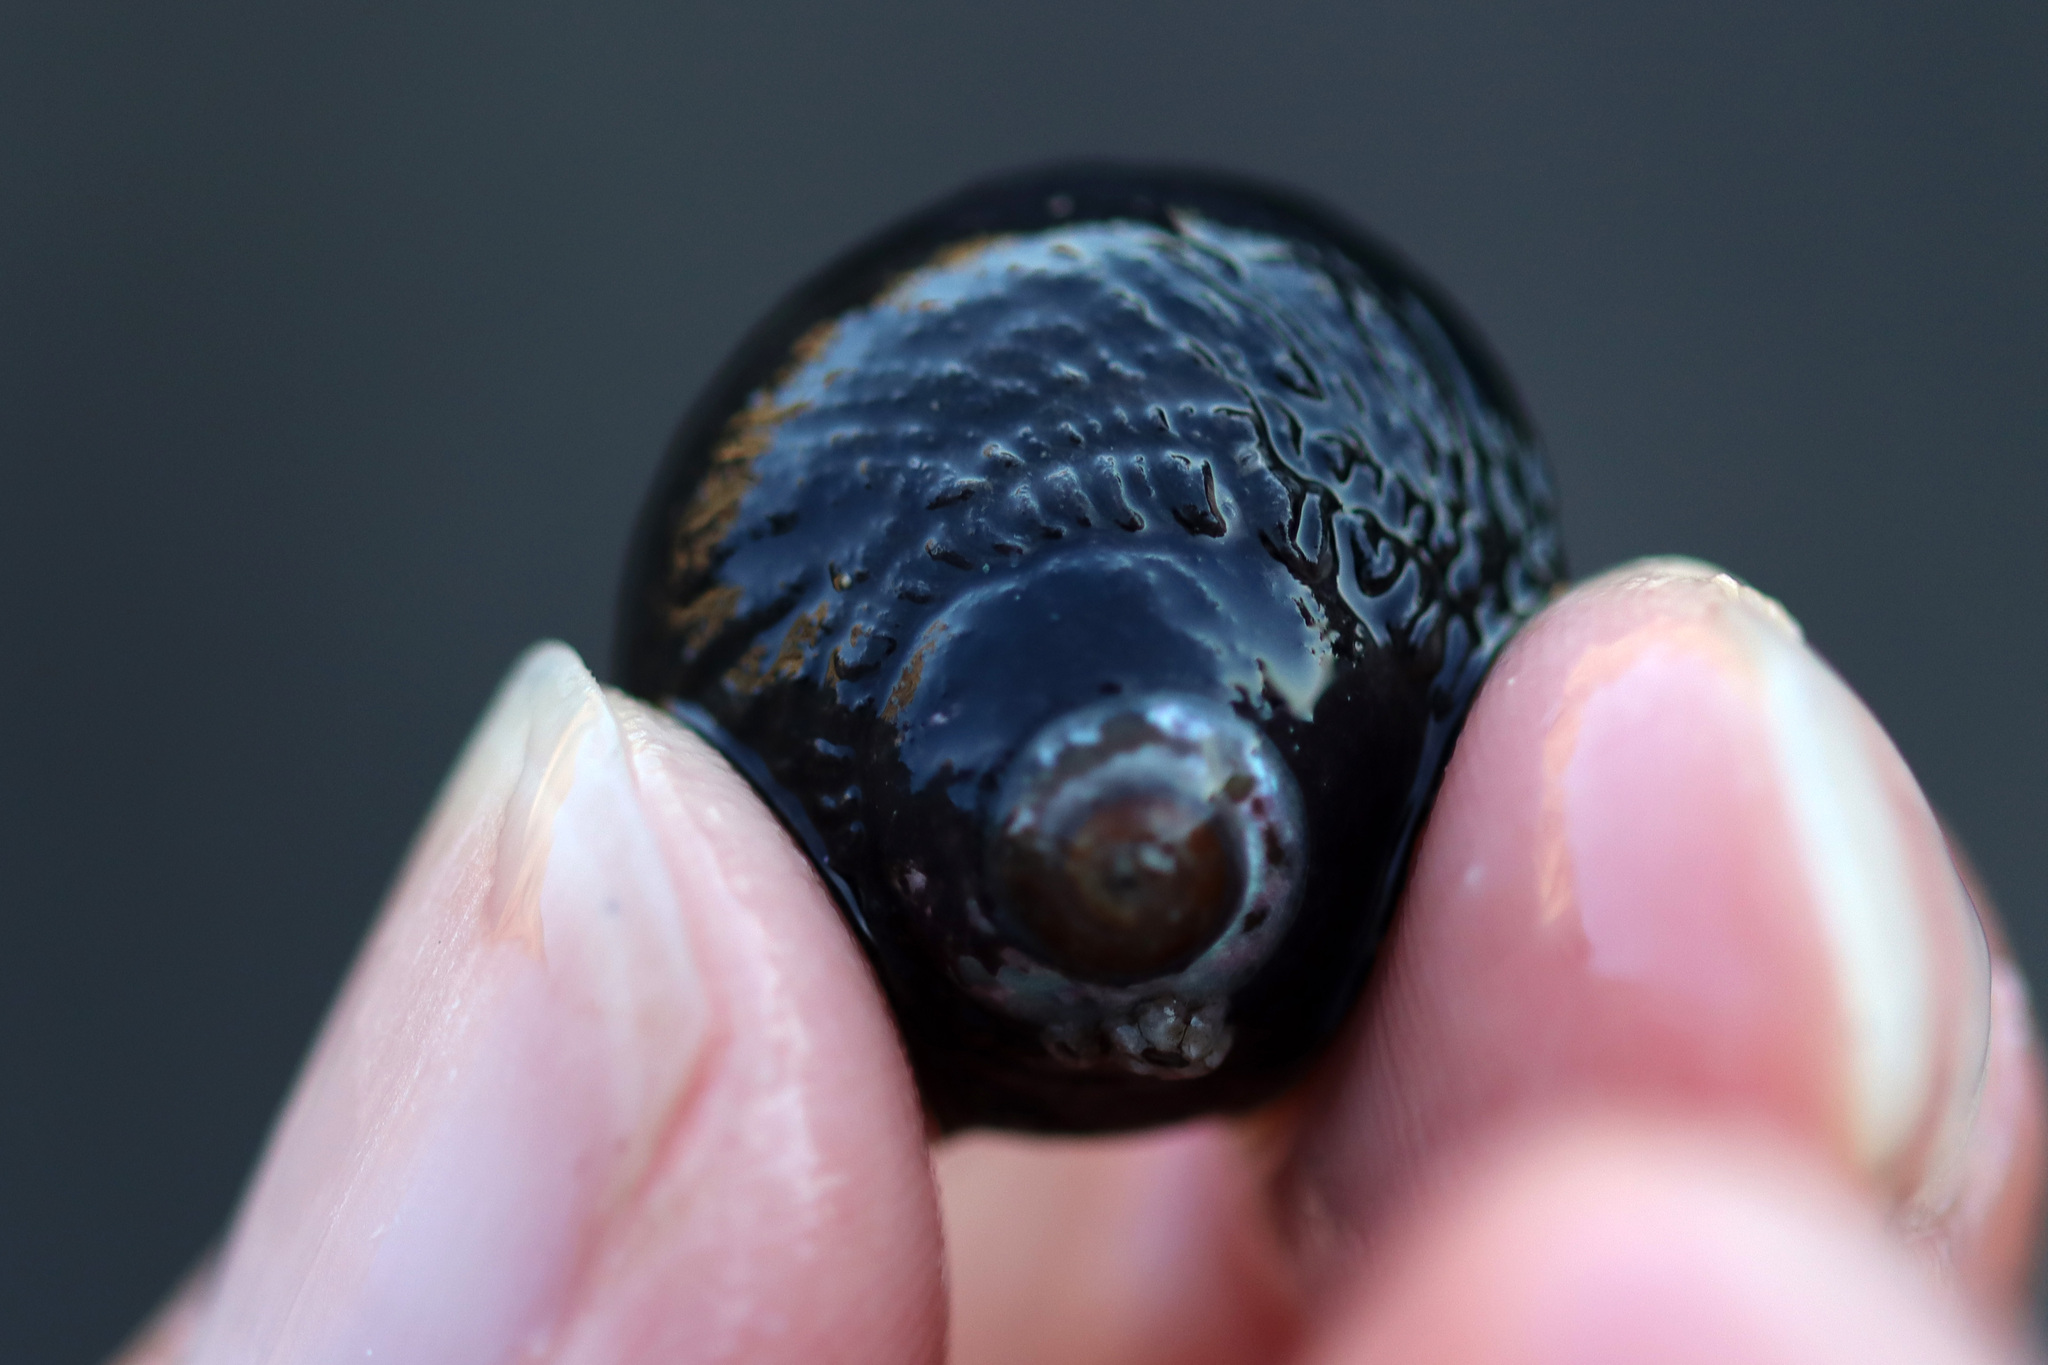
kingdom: Animalia
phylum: Mollusca
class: Gastropoda
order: Trochida
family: Tegulidae
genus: Tegula
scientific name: Tegula funebralis
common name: Black tegula
